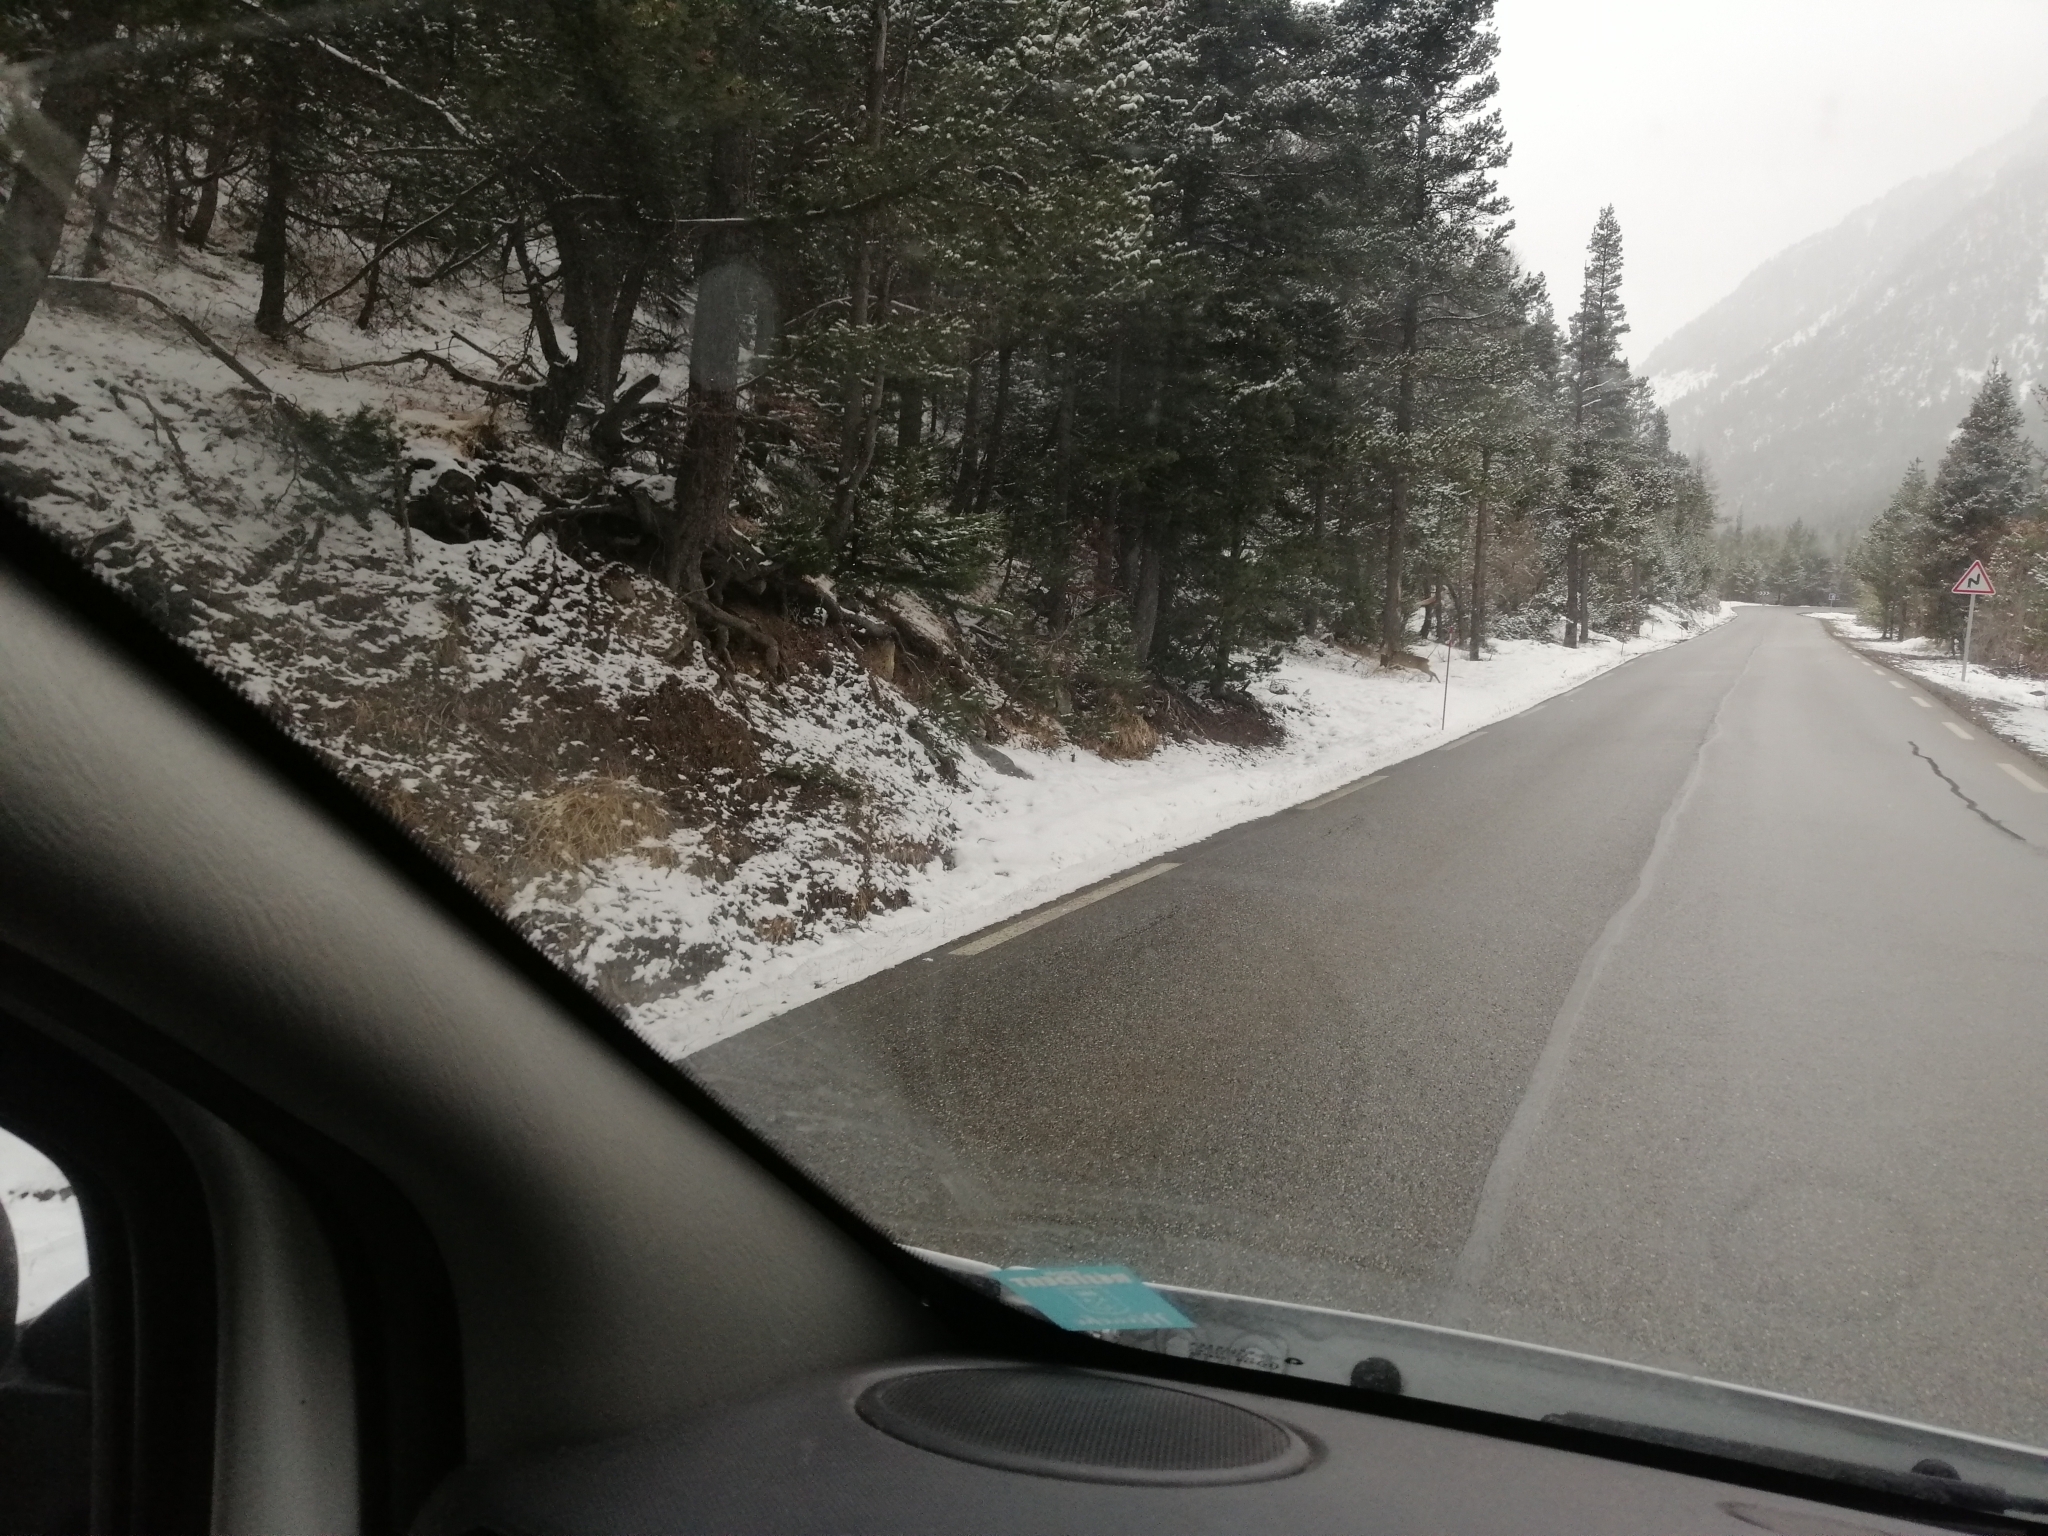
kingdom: Animalia
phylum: Chordata
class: Mammalia
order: Artiodactyla
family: Cervidae
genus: Capreolus
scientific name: Capreolus capreolus
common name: Western roe deer
